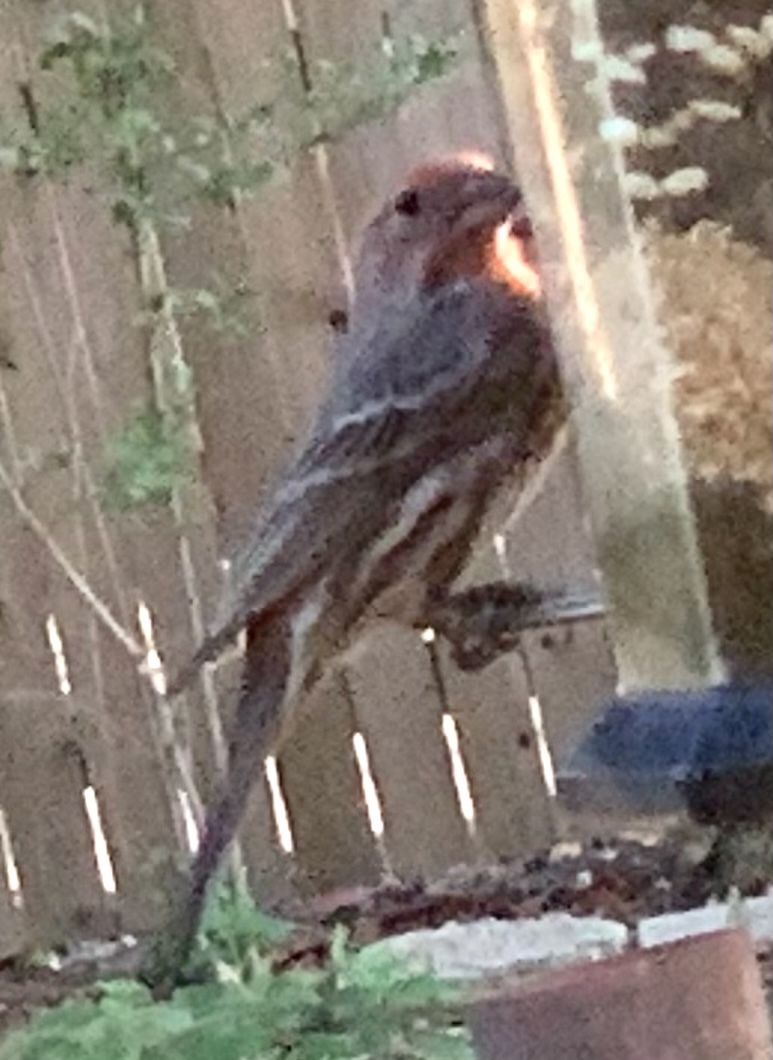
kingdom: Animalia
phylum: Chordata
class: Aves
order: Passeriformes
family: Fringillidae
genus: Haemorhous
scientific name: Haemorhous mexicanus
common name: House finch
